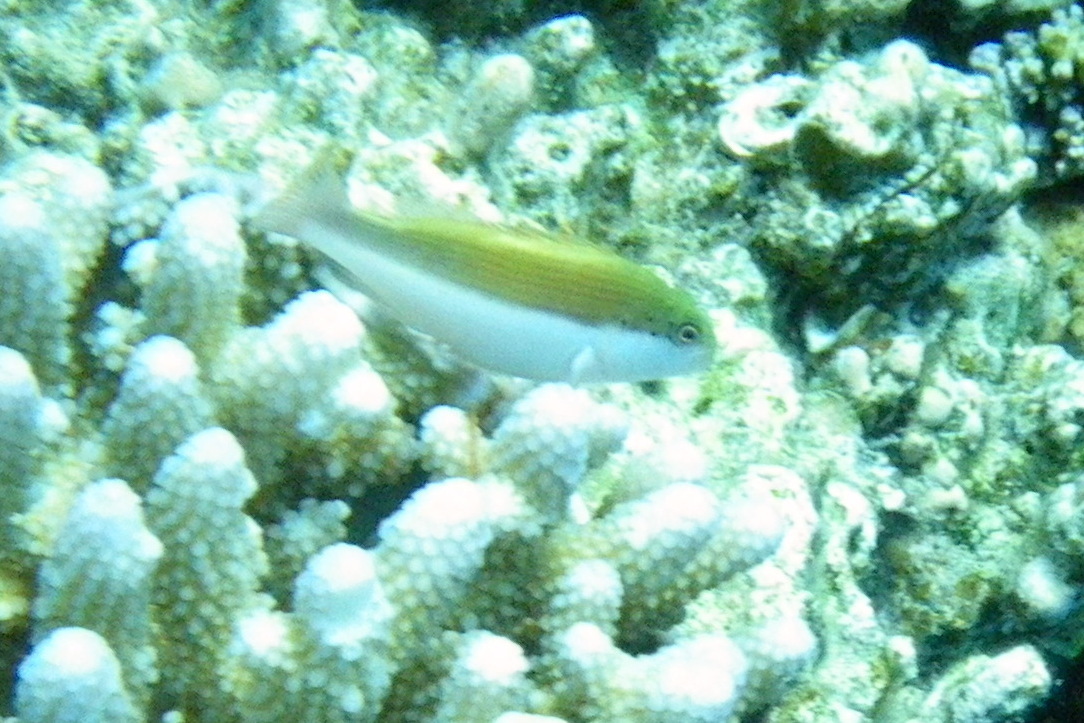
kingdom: Animalia
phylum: Chordata
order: Perciformes
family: Cirrhitidae
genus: Paracirrhites
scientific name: Paracirrhites forsteri
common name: Freckled hawkfish
